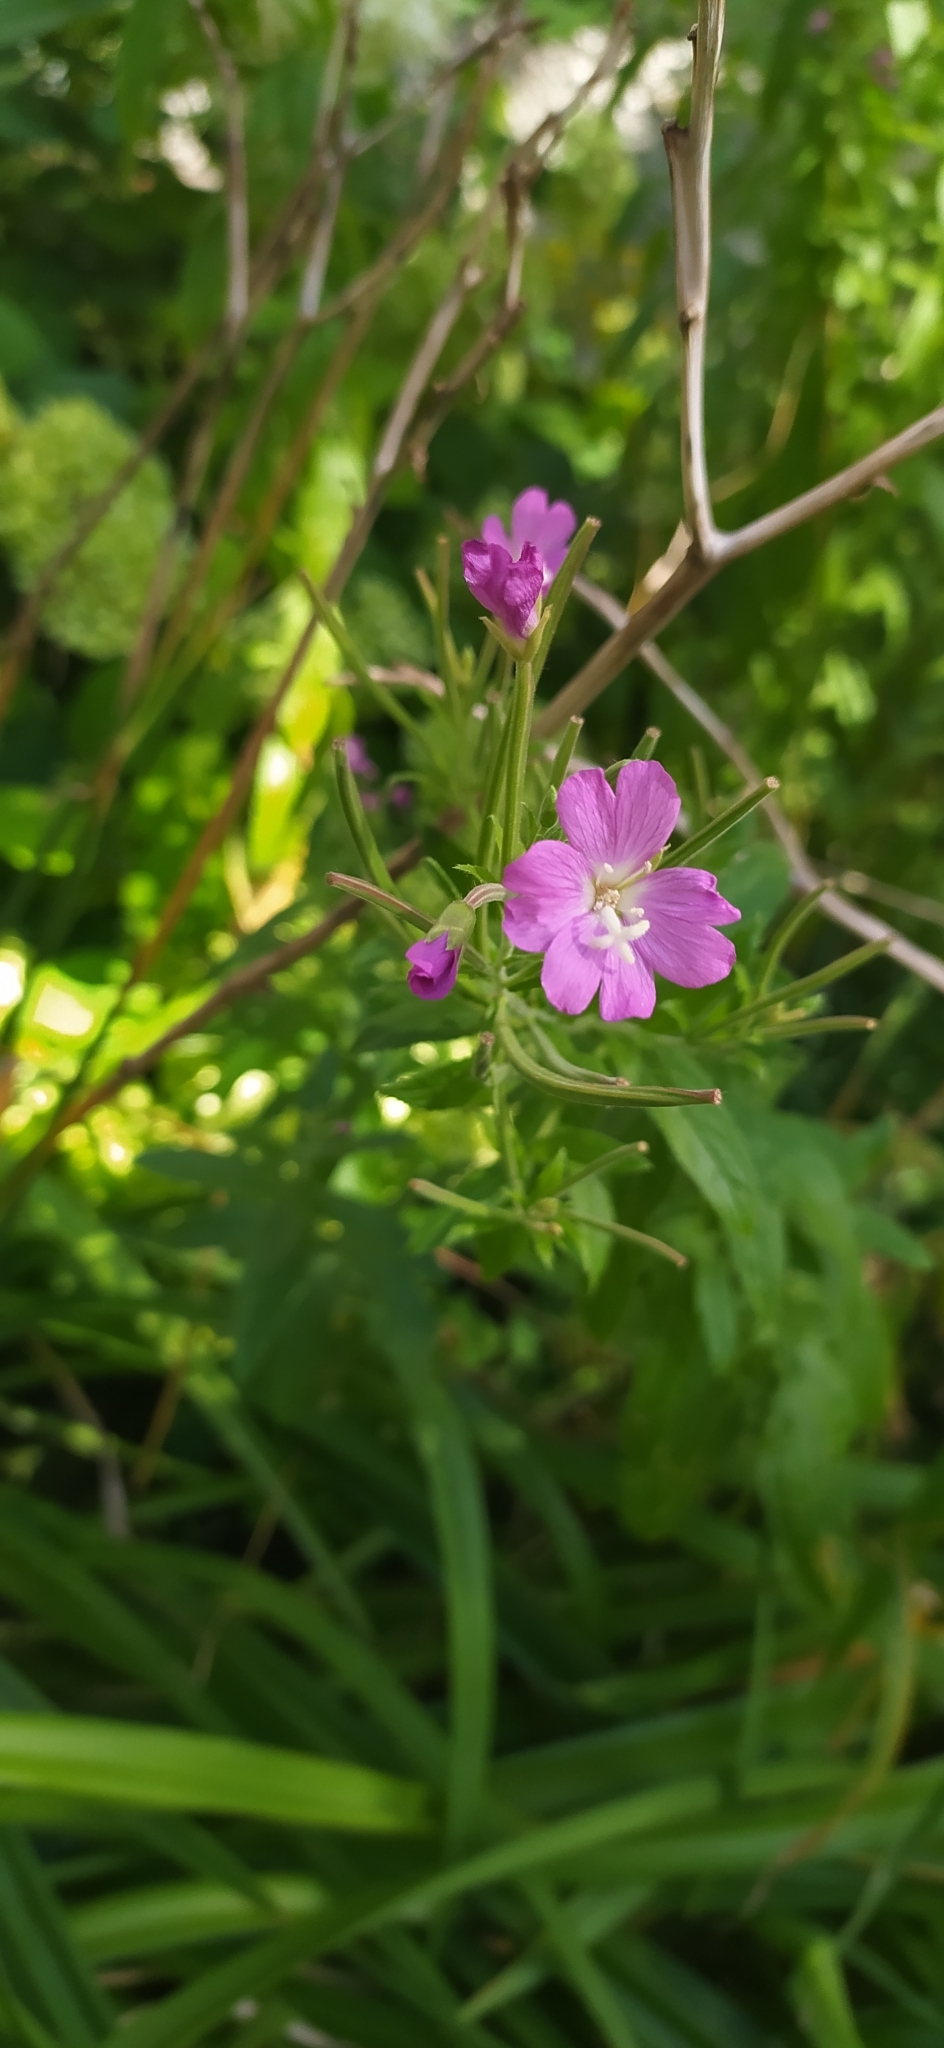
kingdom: Plantae
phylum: Tracheophyta
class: Magnoliopsida
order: Myrtales
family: Onagraceae
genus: Epilobium
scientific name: Epilobium hirsutum
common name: Great willowherb
